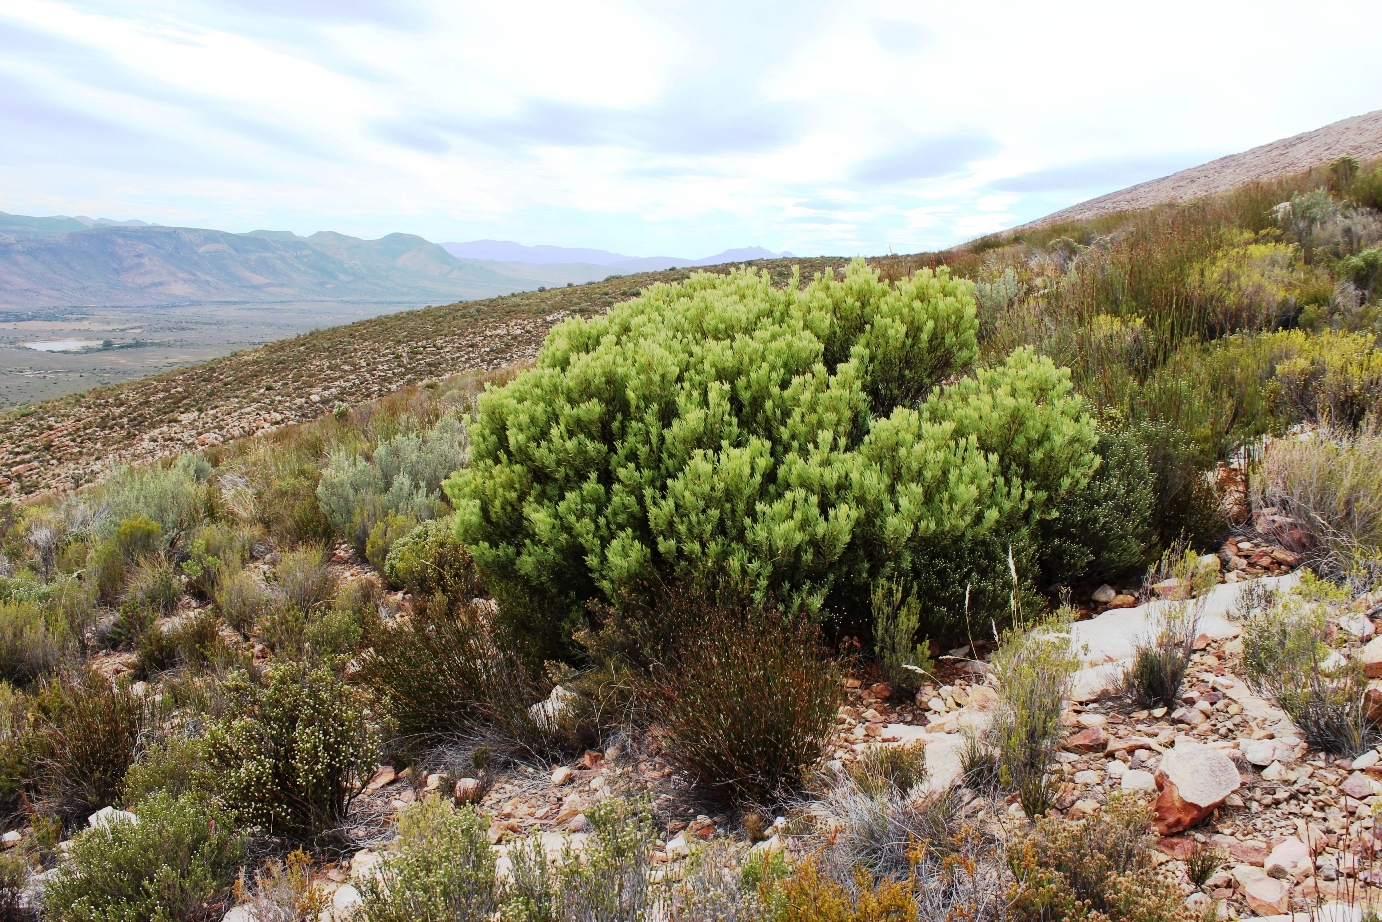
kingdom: Plantae
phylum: Tracheophyta
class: Magnoliopsida
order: Proteales
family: Proteaceae
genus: Leucadendron
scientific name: Leucadendron pubescens
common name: Grey conebush
